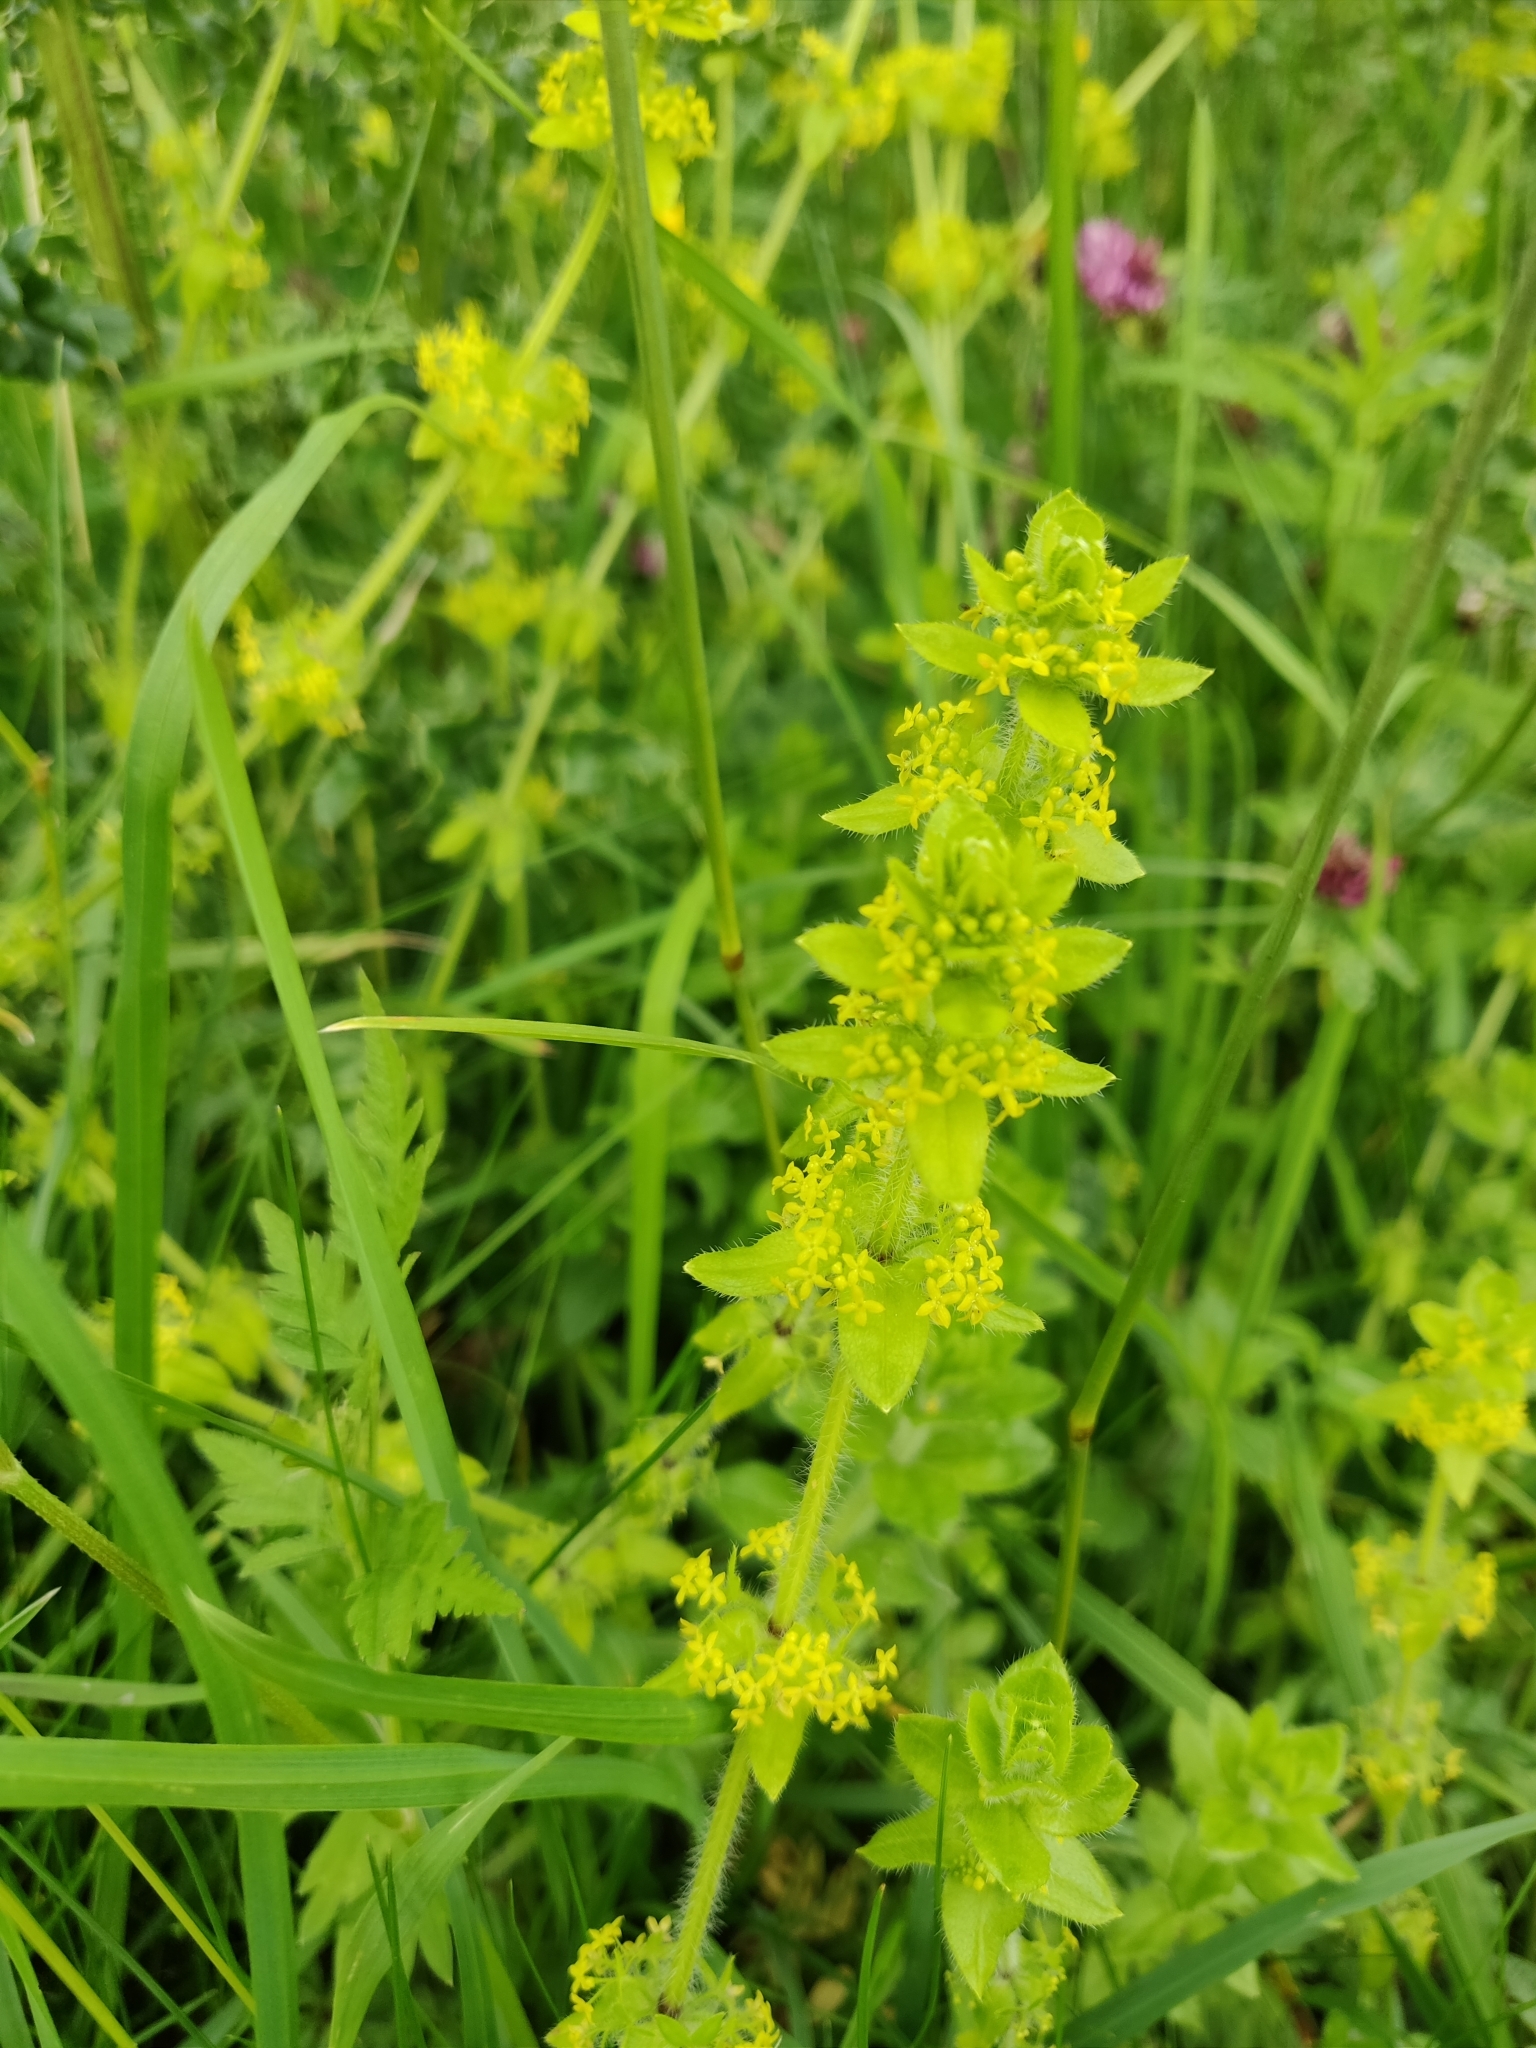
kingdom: Plantae
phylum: Tracheophyta
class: Magnoliopsida
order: Gentianales
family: Rubiaceae
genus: Cruciata
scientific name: Cruciata laevipes
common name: Crosswort
